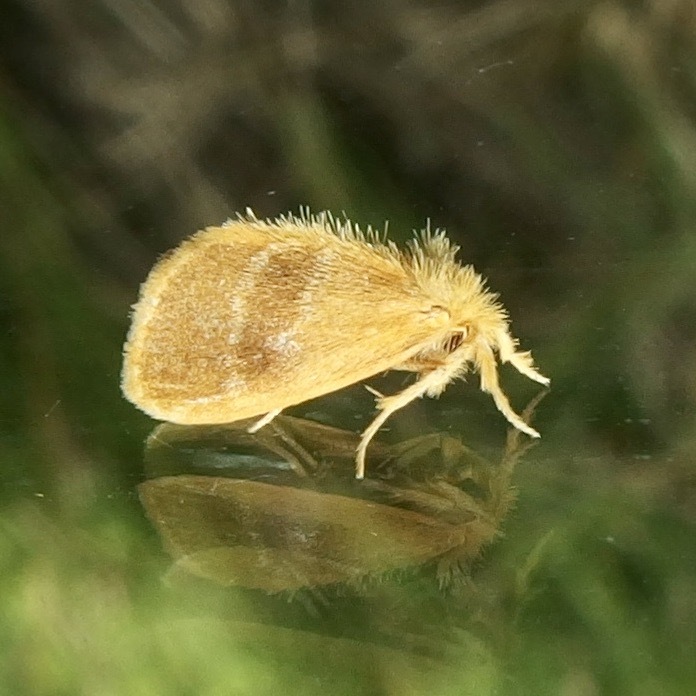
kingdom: Animalia
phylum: Arthropoda
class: Insecta
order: Lepidoptera
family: Erebidae
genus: Euproctis
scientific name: Euproctis lucifuga
